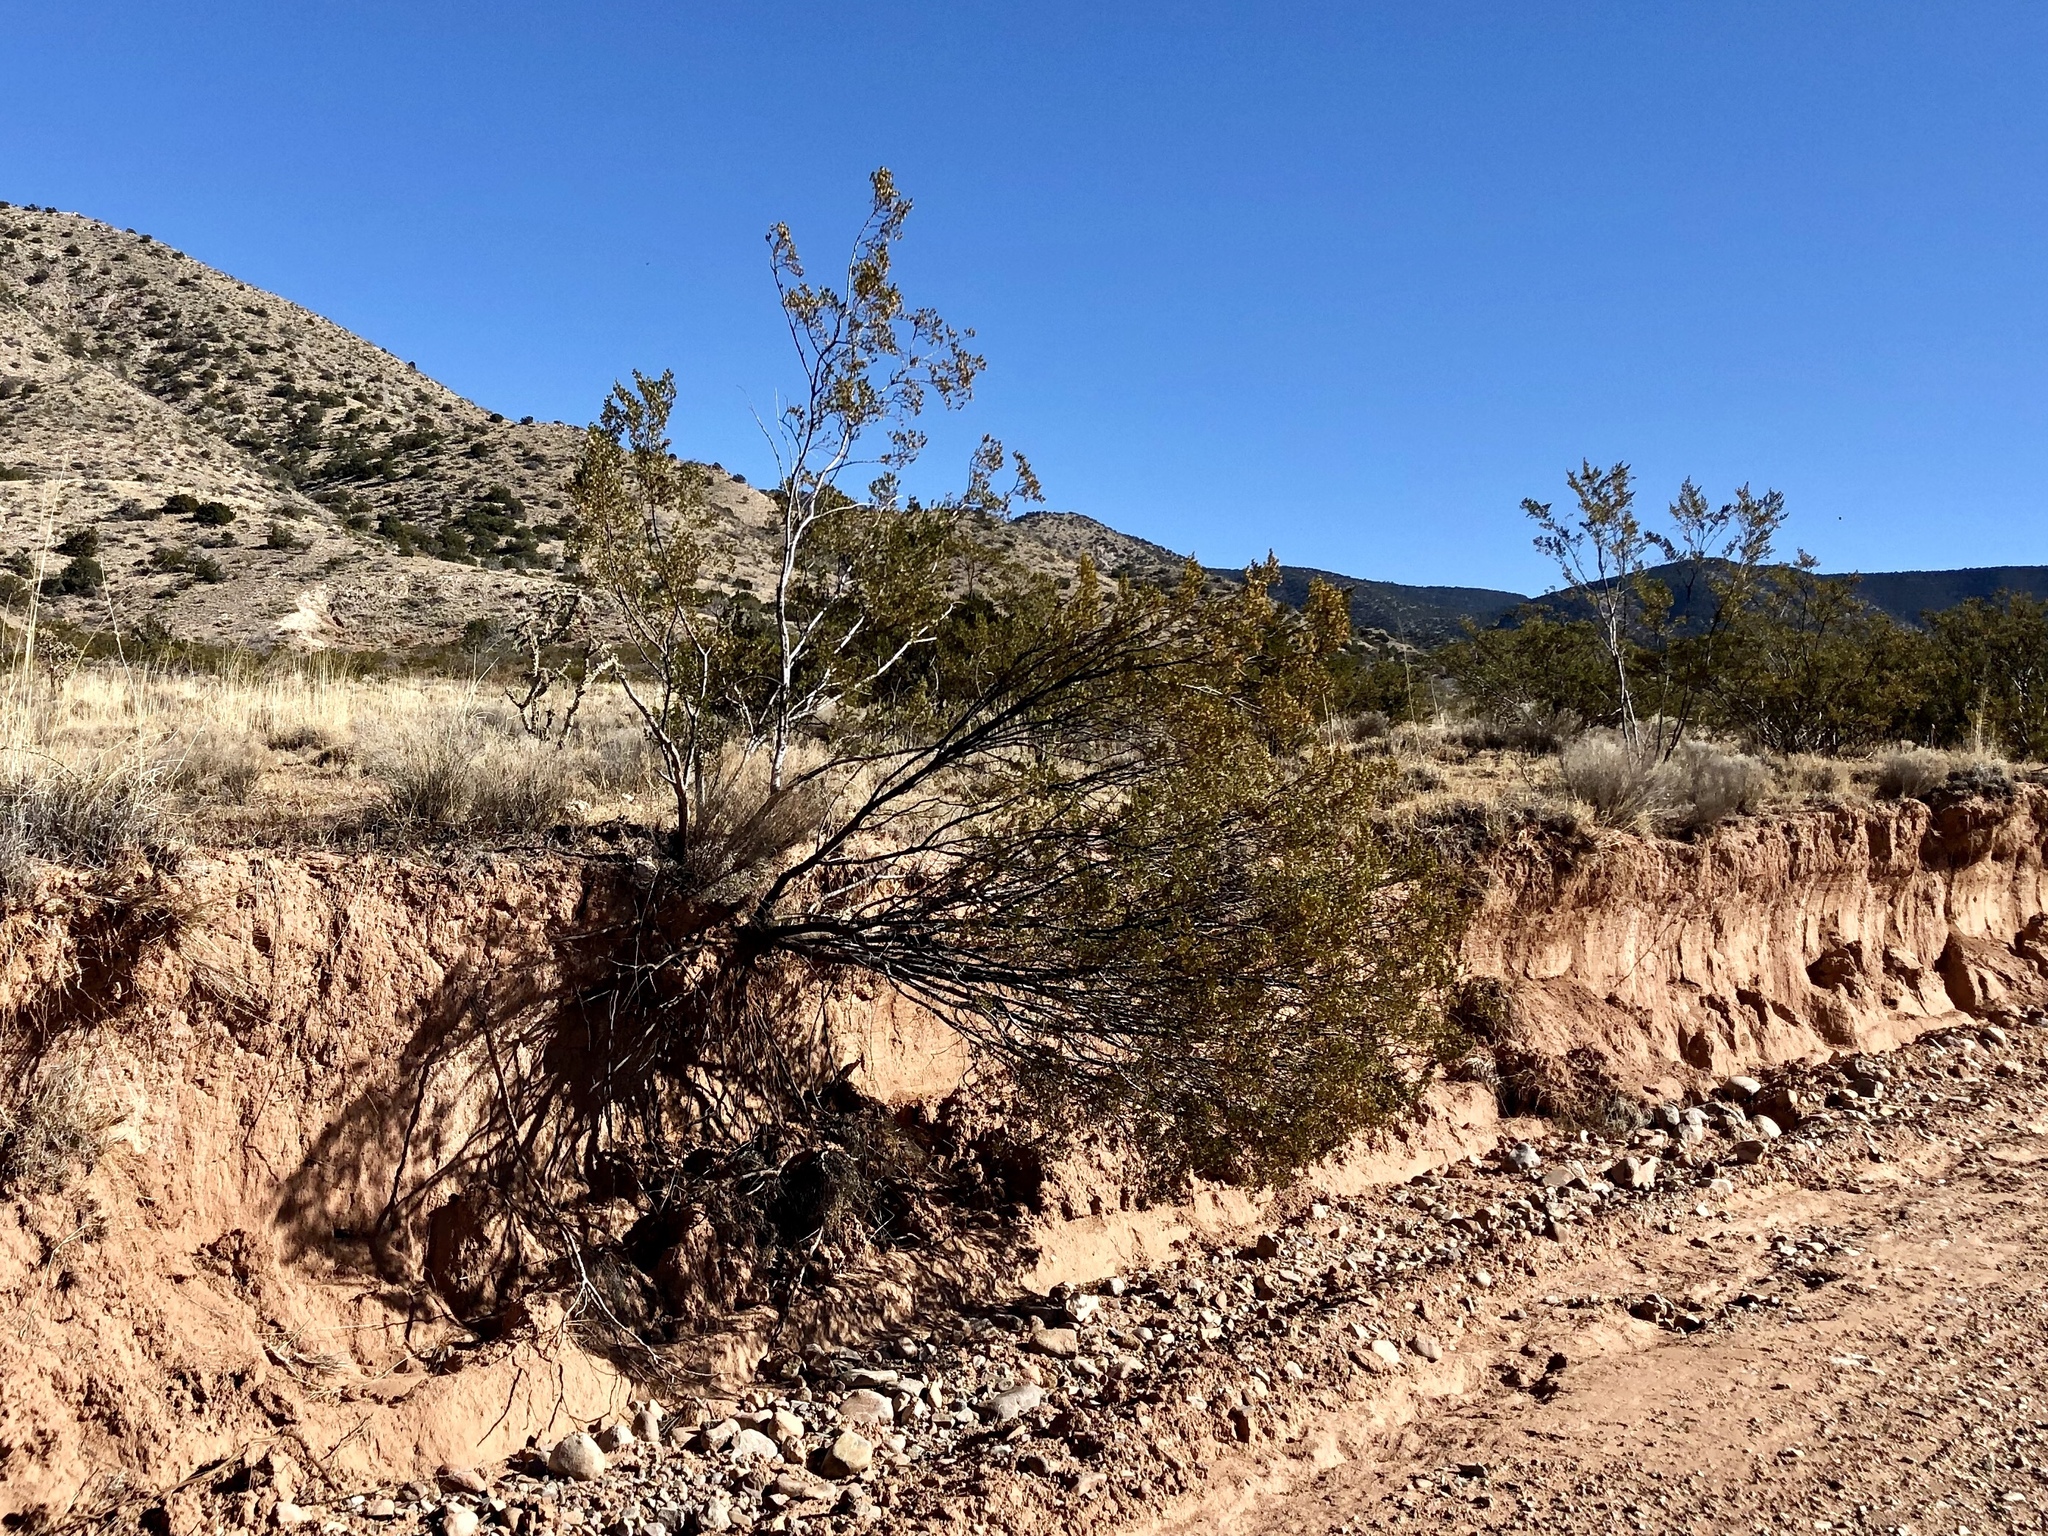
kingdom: Plantae
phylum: Tracheophyta
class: Magnoliopsida
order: Zygophyllales
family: Zygophyllaceae
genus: Larrea
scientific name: Larrea tridentata
